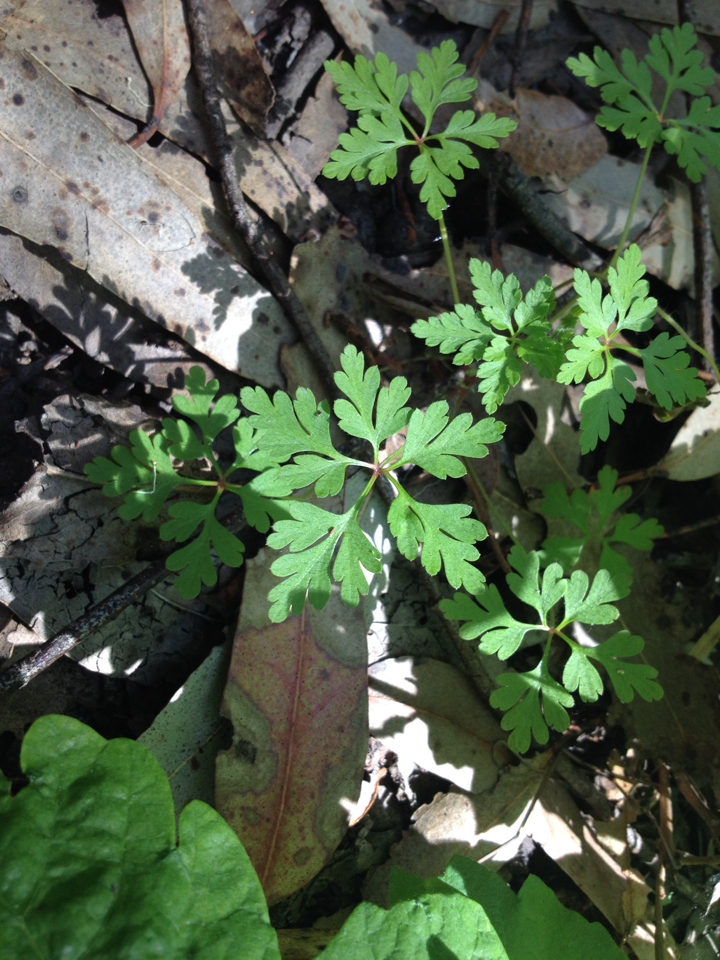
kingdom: Plantae
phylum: Tracheophyta
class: Magnoliopsida
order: Geraniales
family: Geraniaceae
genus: Geranium
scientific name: Geranium robertianum
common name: Herb-robert
